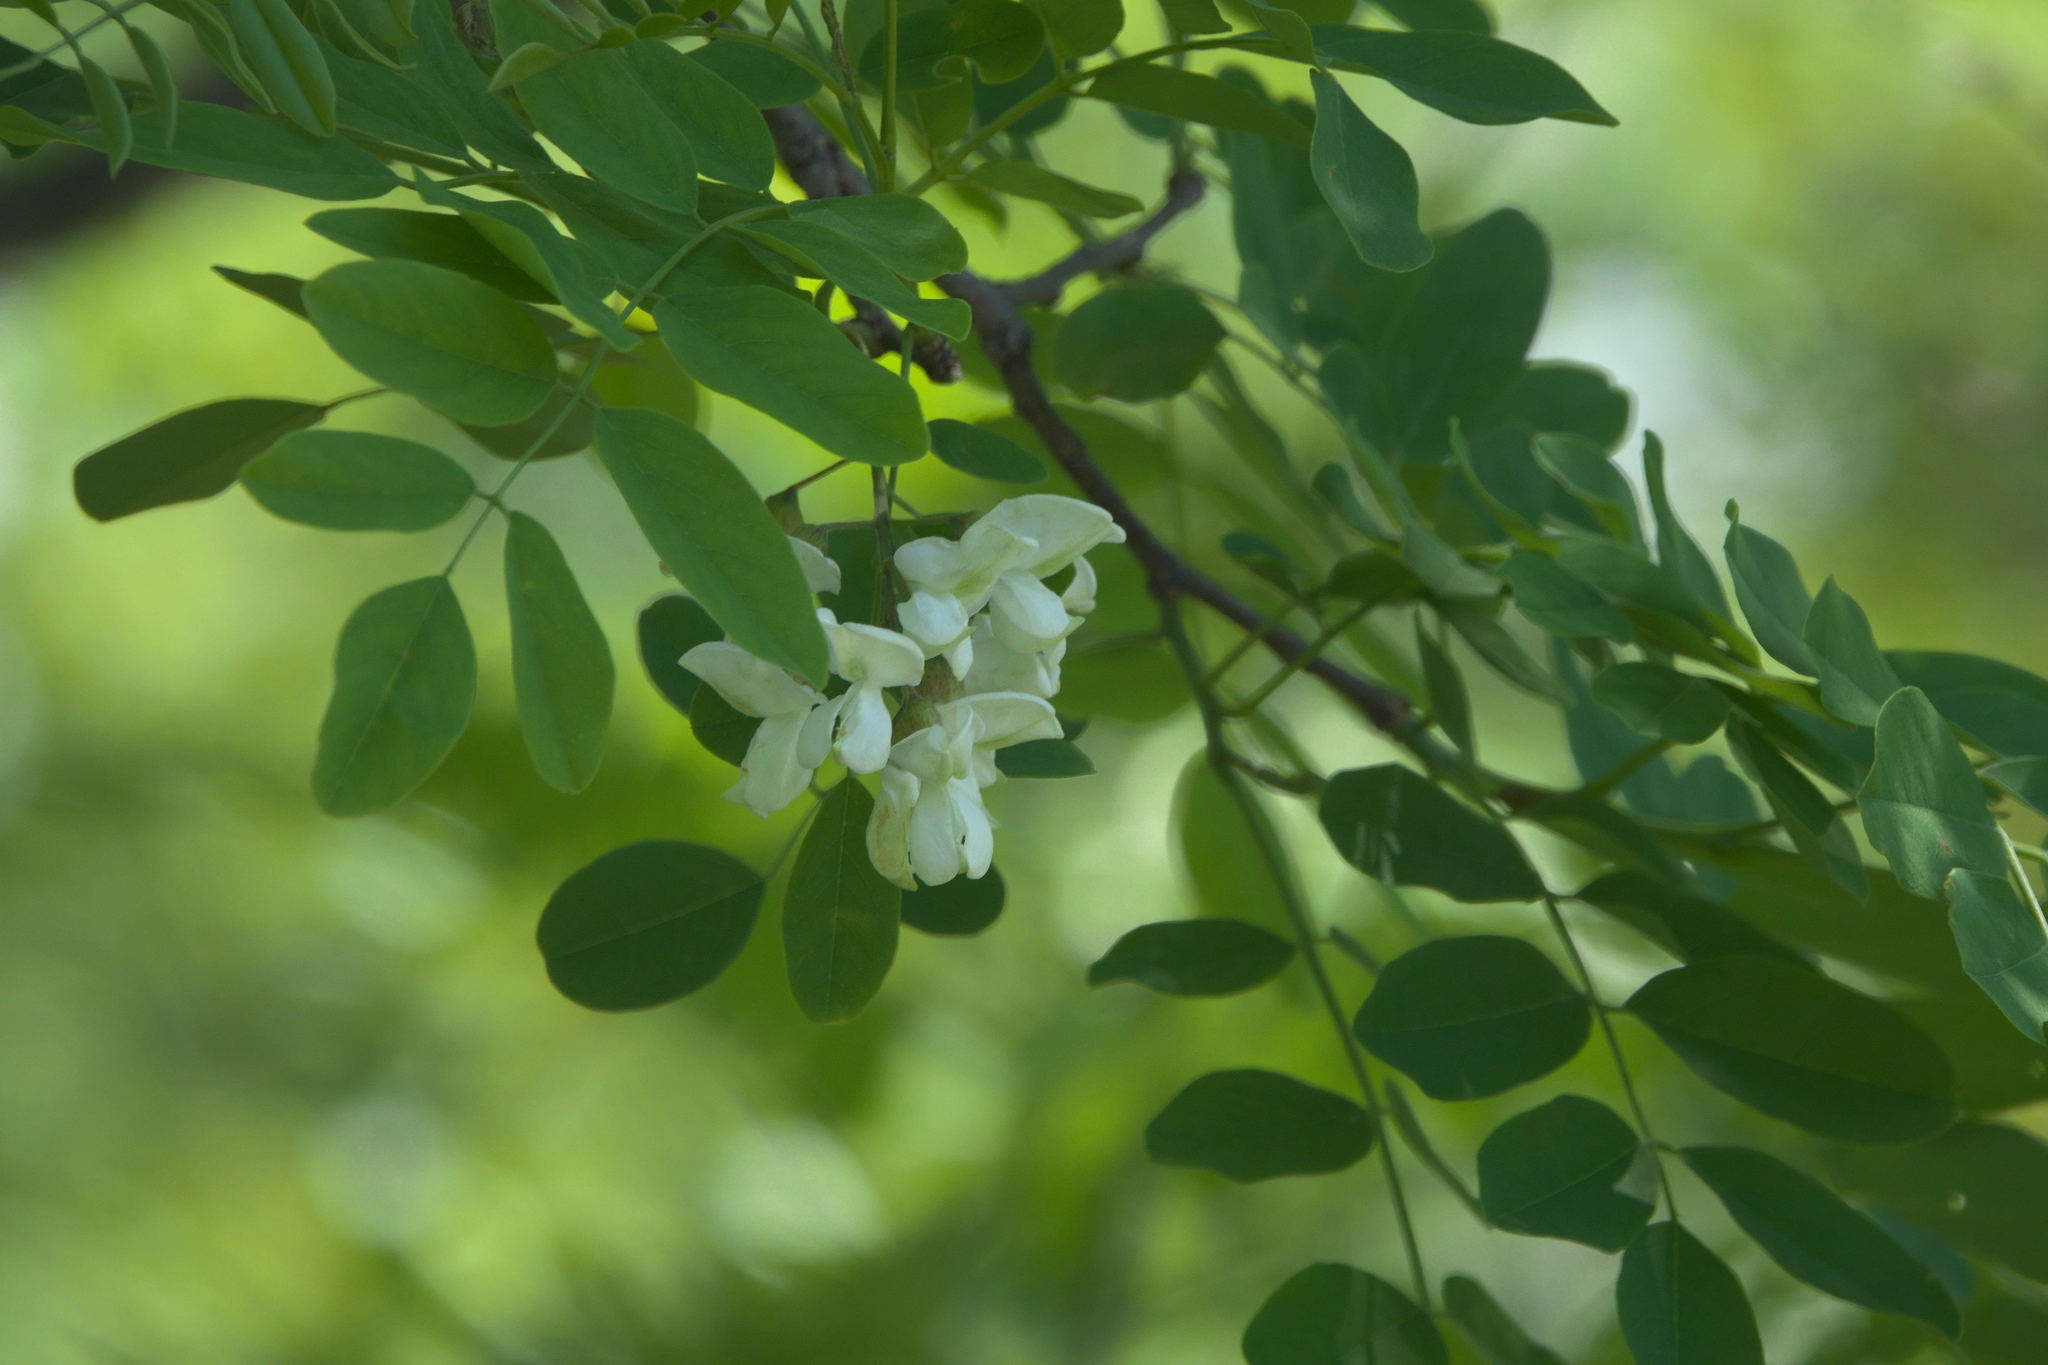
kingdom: Plantae
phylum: Tracheophyta
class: Magnoliopsida
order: Fabales
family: Fabaceae
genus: Robinia
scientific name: Robinia pseudoacacia
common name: Black locust
